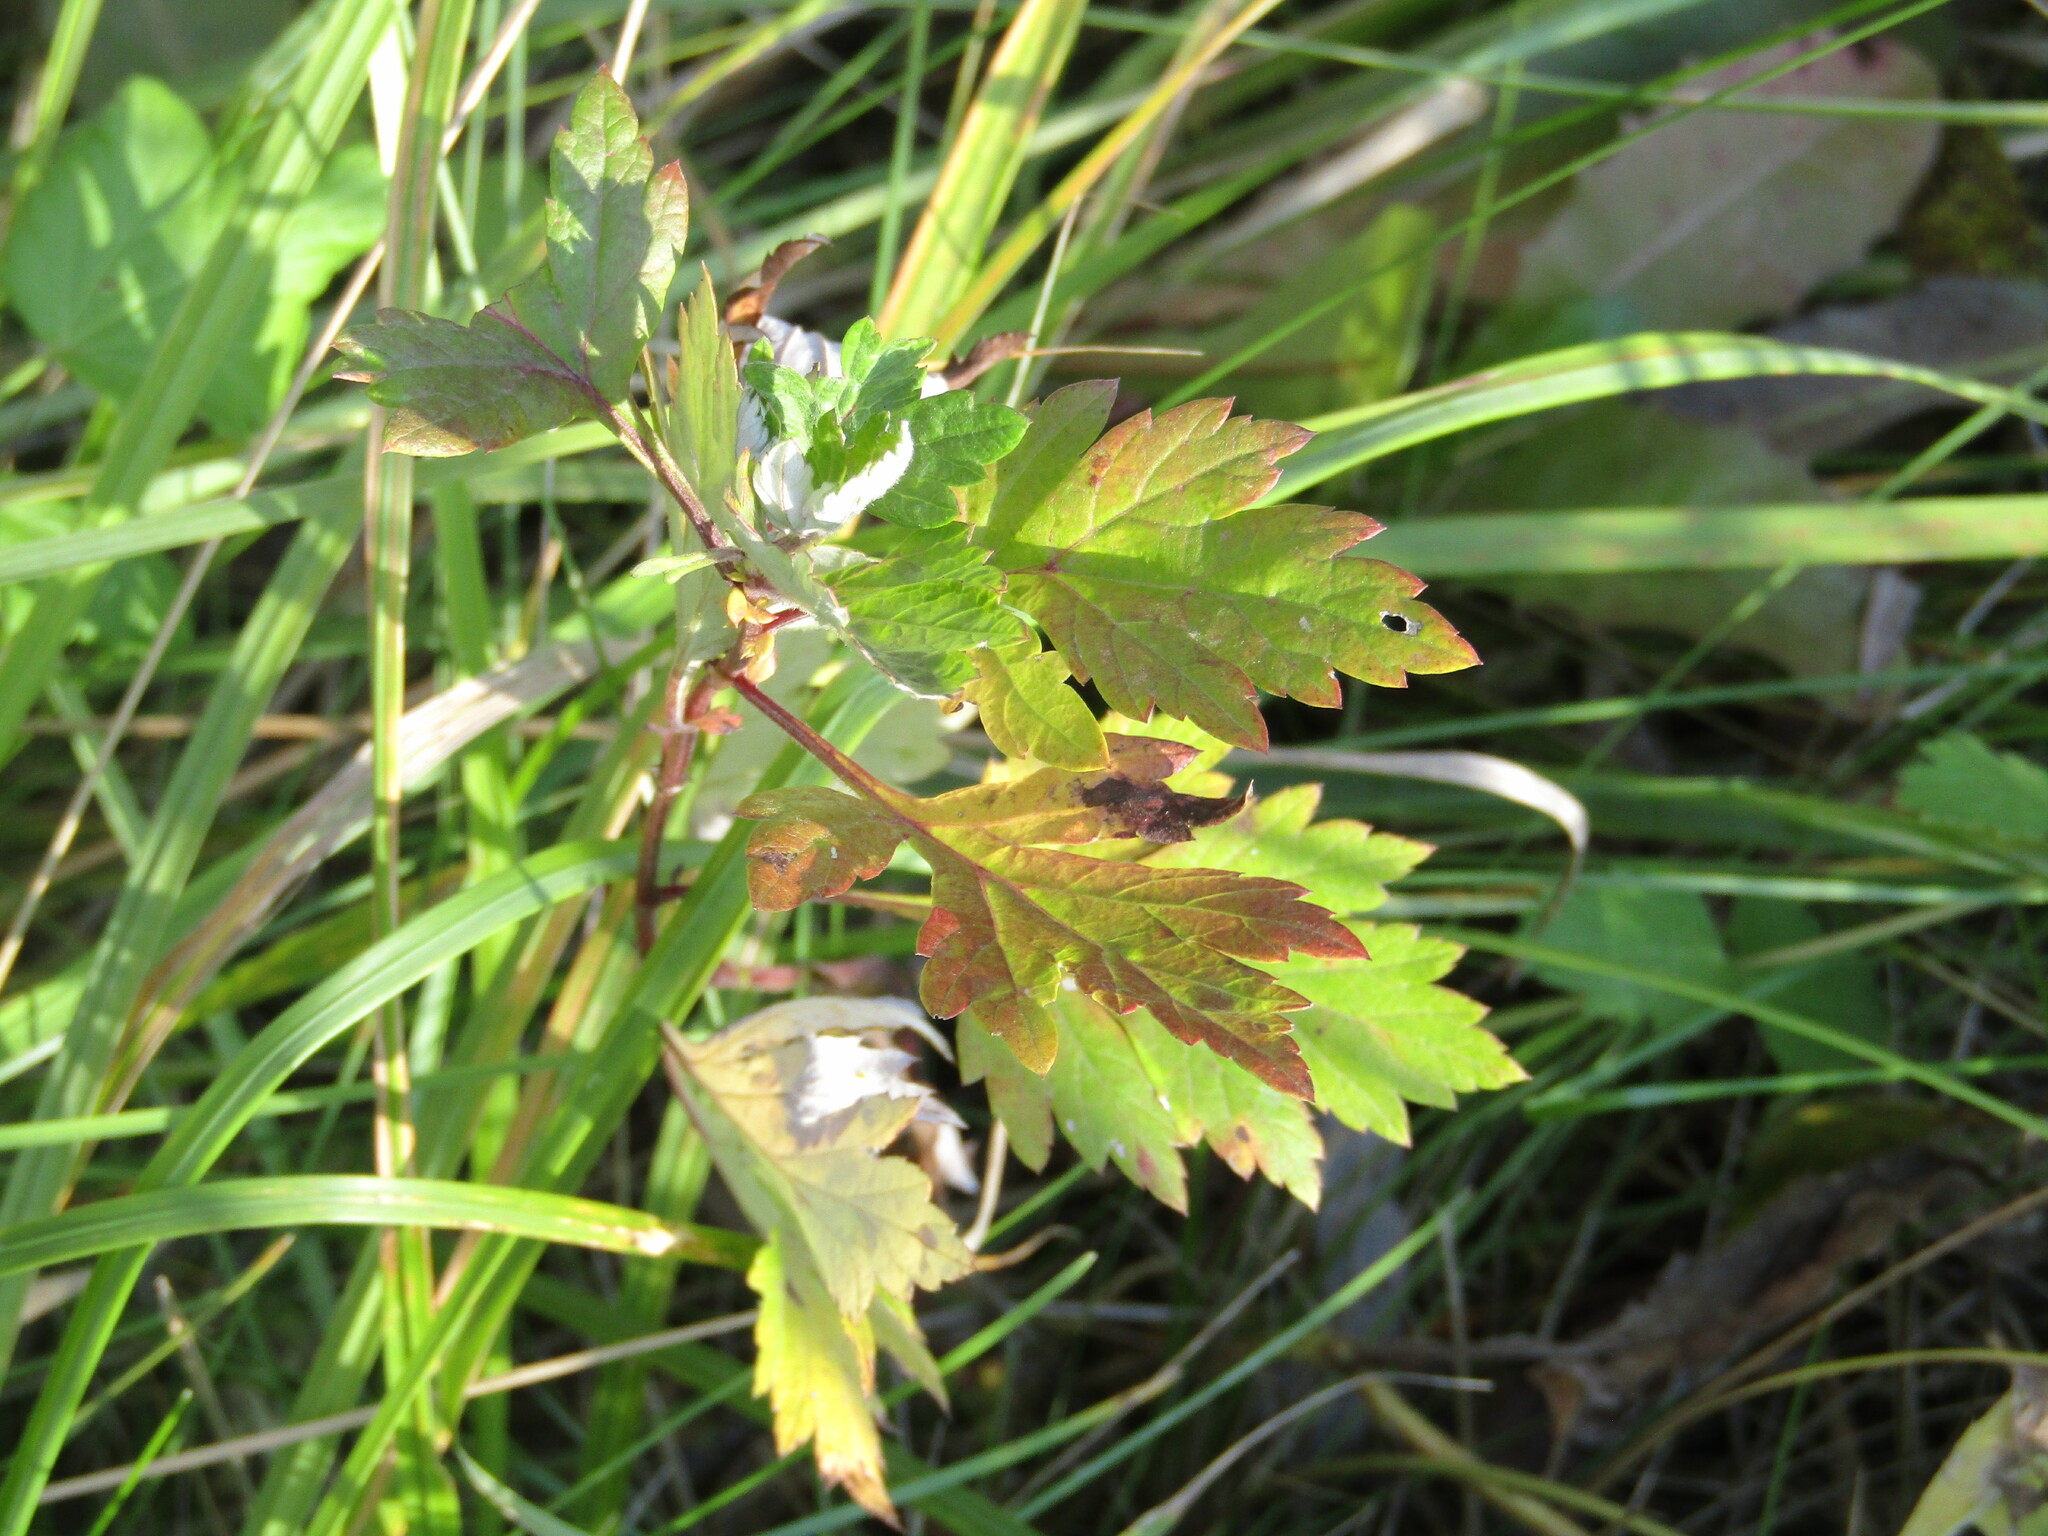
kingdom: Plantae
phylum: Tracheophyta
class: Magnoliopsida
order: Asterales
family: Asteraceae
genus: Artemisia
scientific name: Artemisia vulgaris
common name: Mugwort
